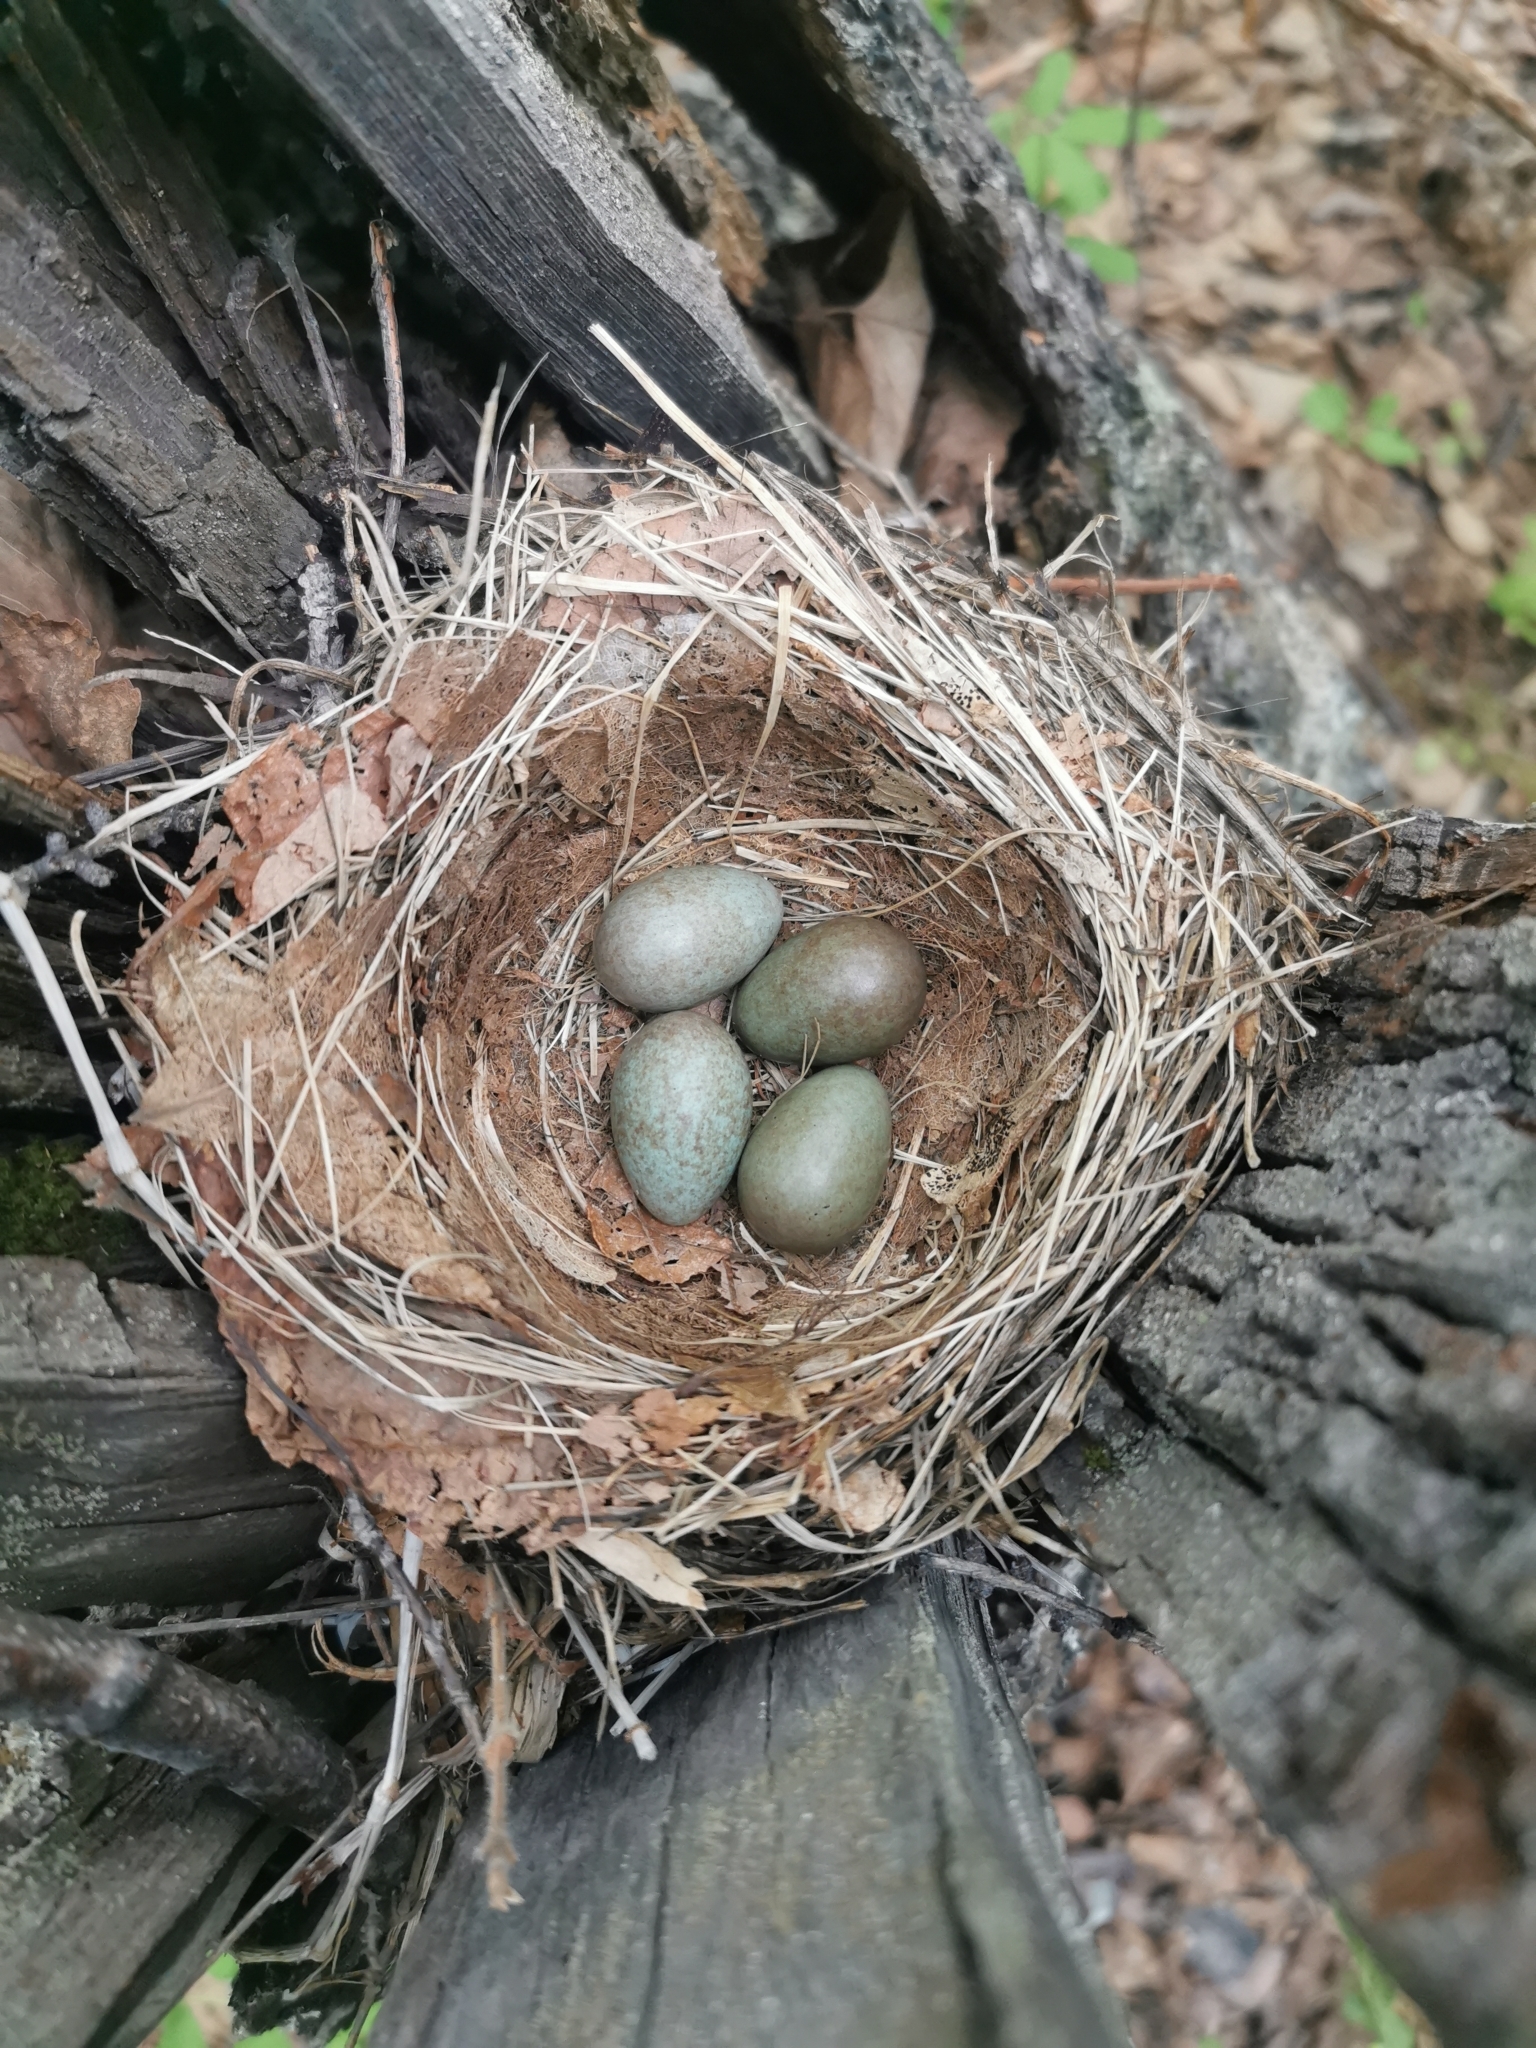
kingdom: Animalia
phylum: Chordata
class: Aves
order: Passeriformes
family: Turdidae
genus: Turdus
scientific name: Turdus obscurus
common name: Eyebrowed thrush
